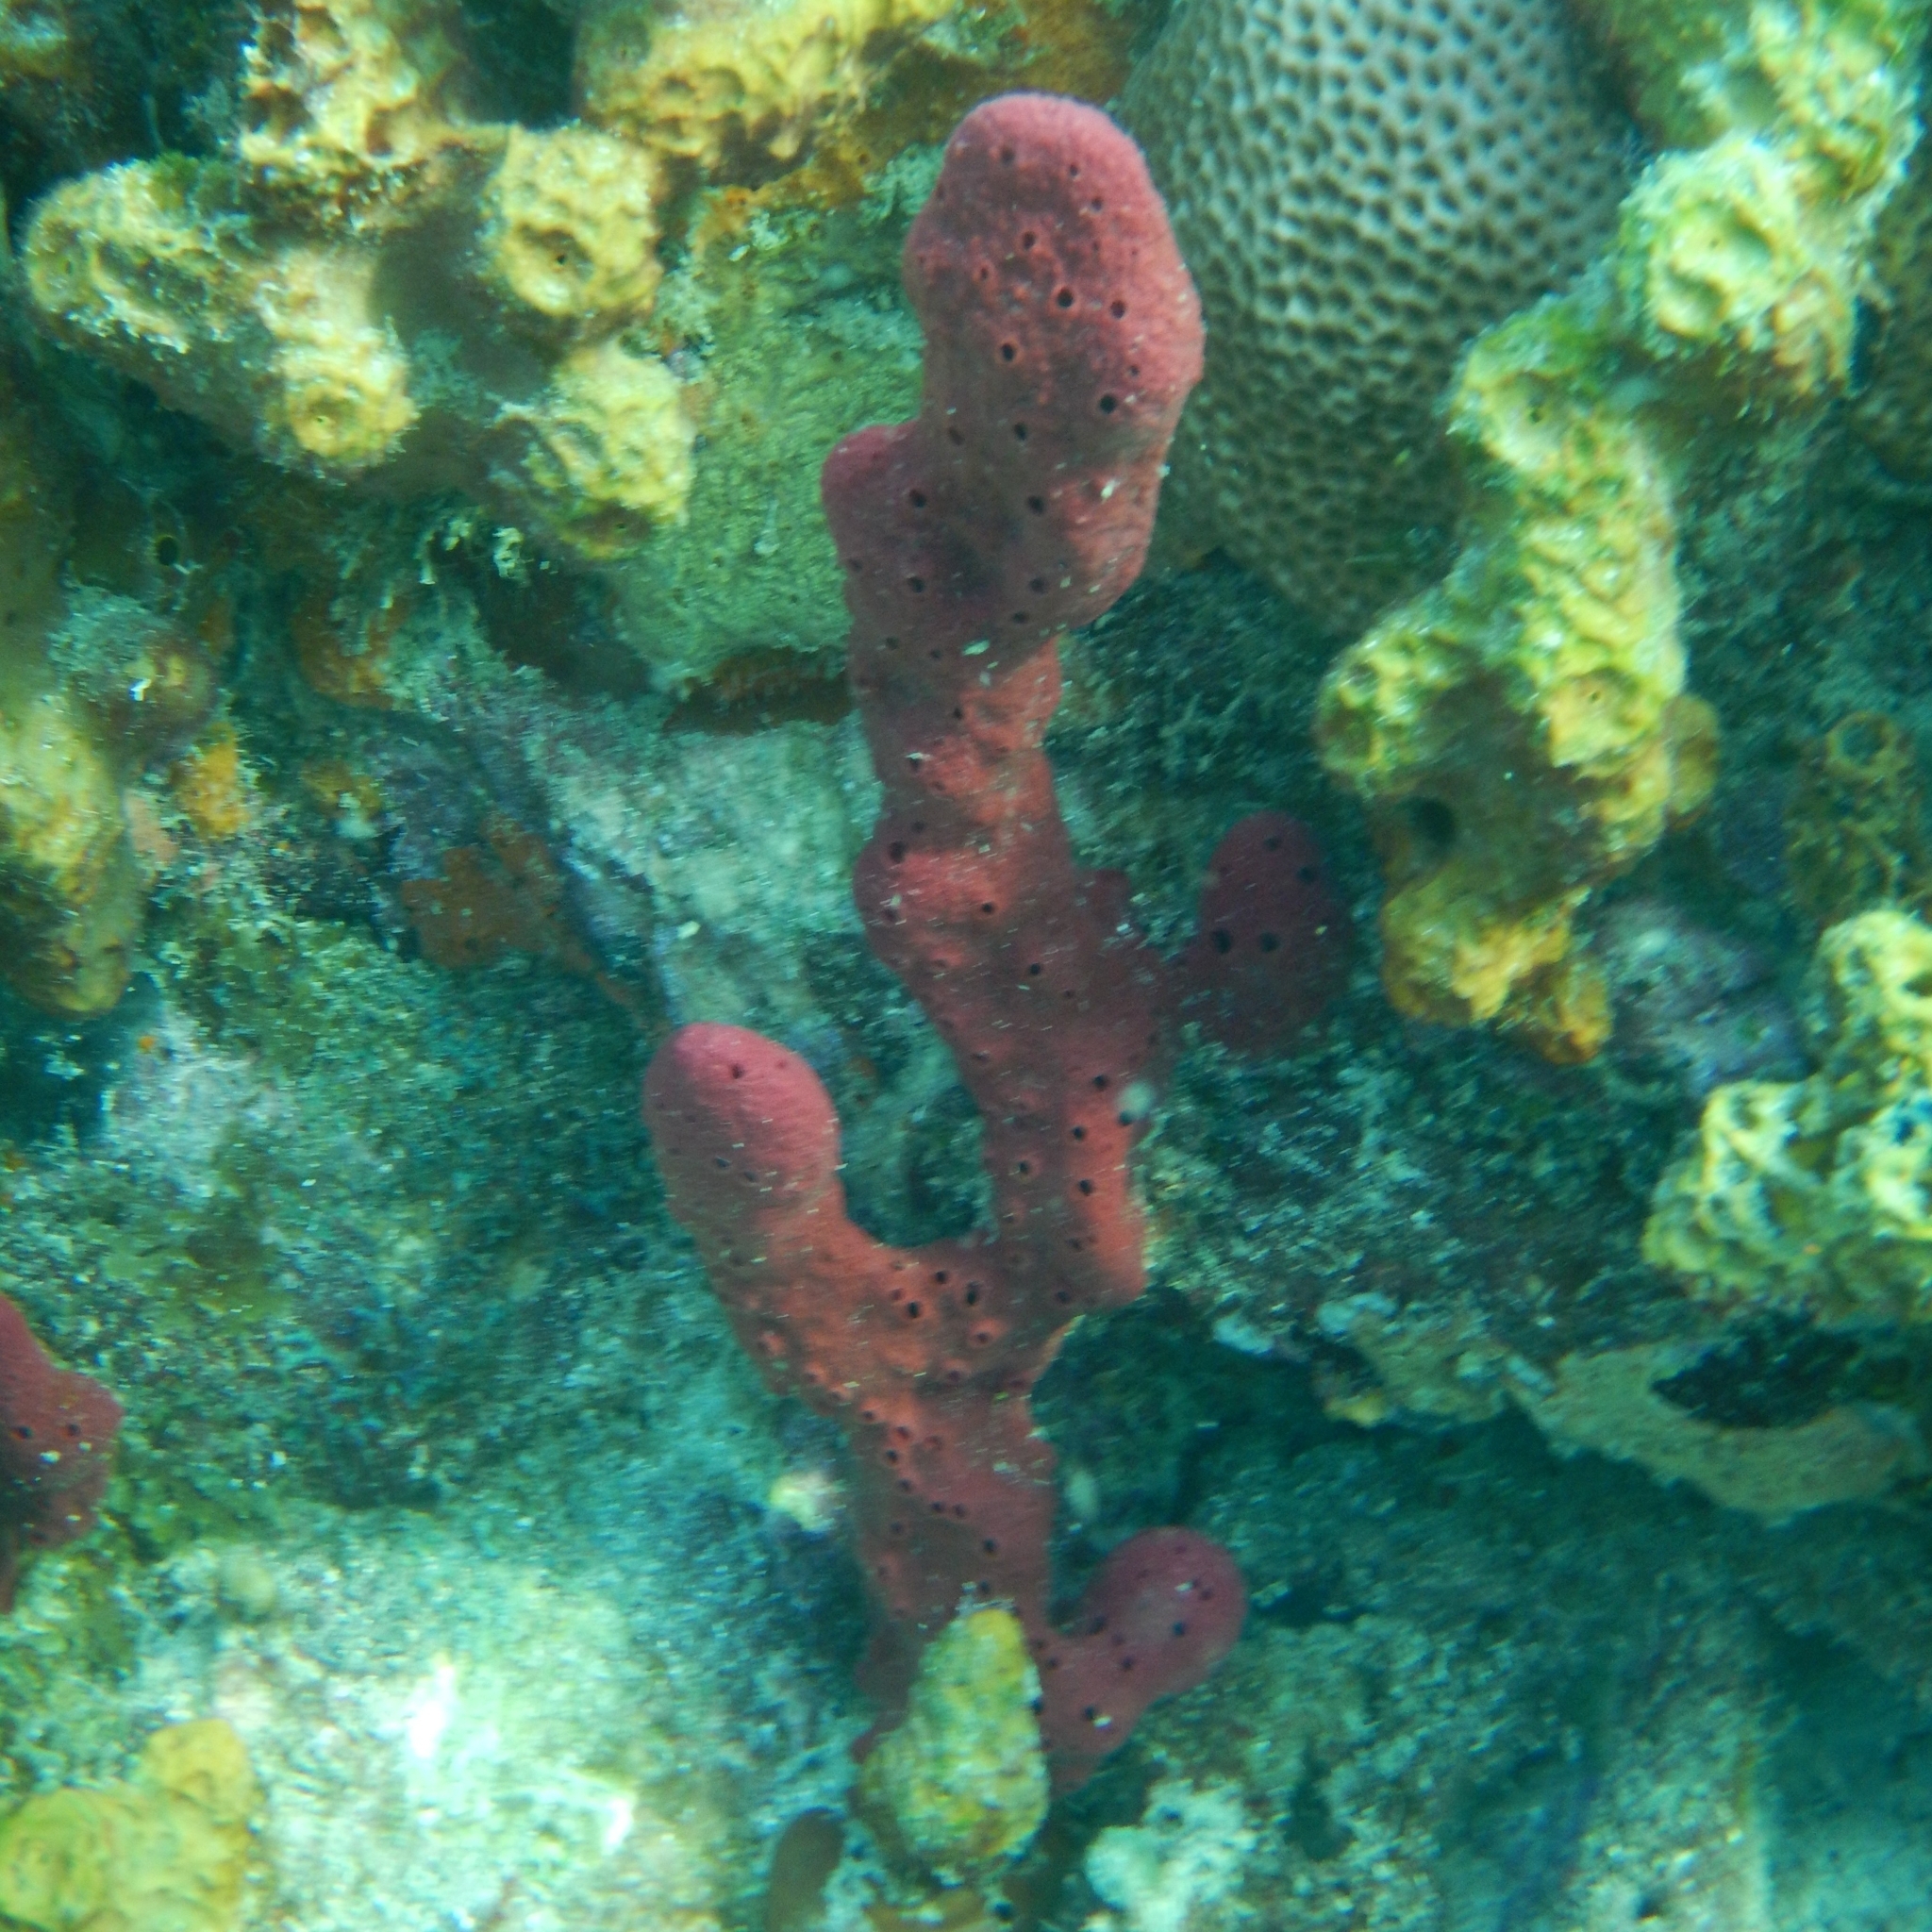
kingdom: Animalia
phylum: Porifera
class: Demospongiae
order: Haplosclerida
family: Niphatidae
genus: Amphimedon
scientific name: Amphimedon compressa
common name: Red sponge
